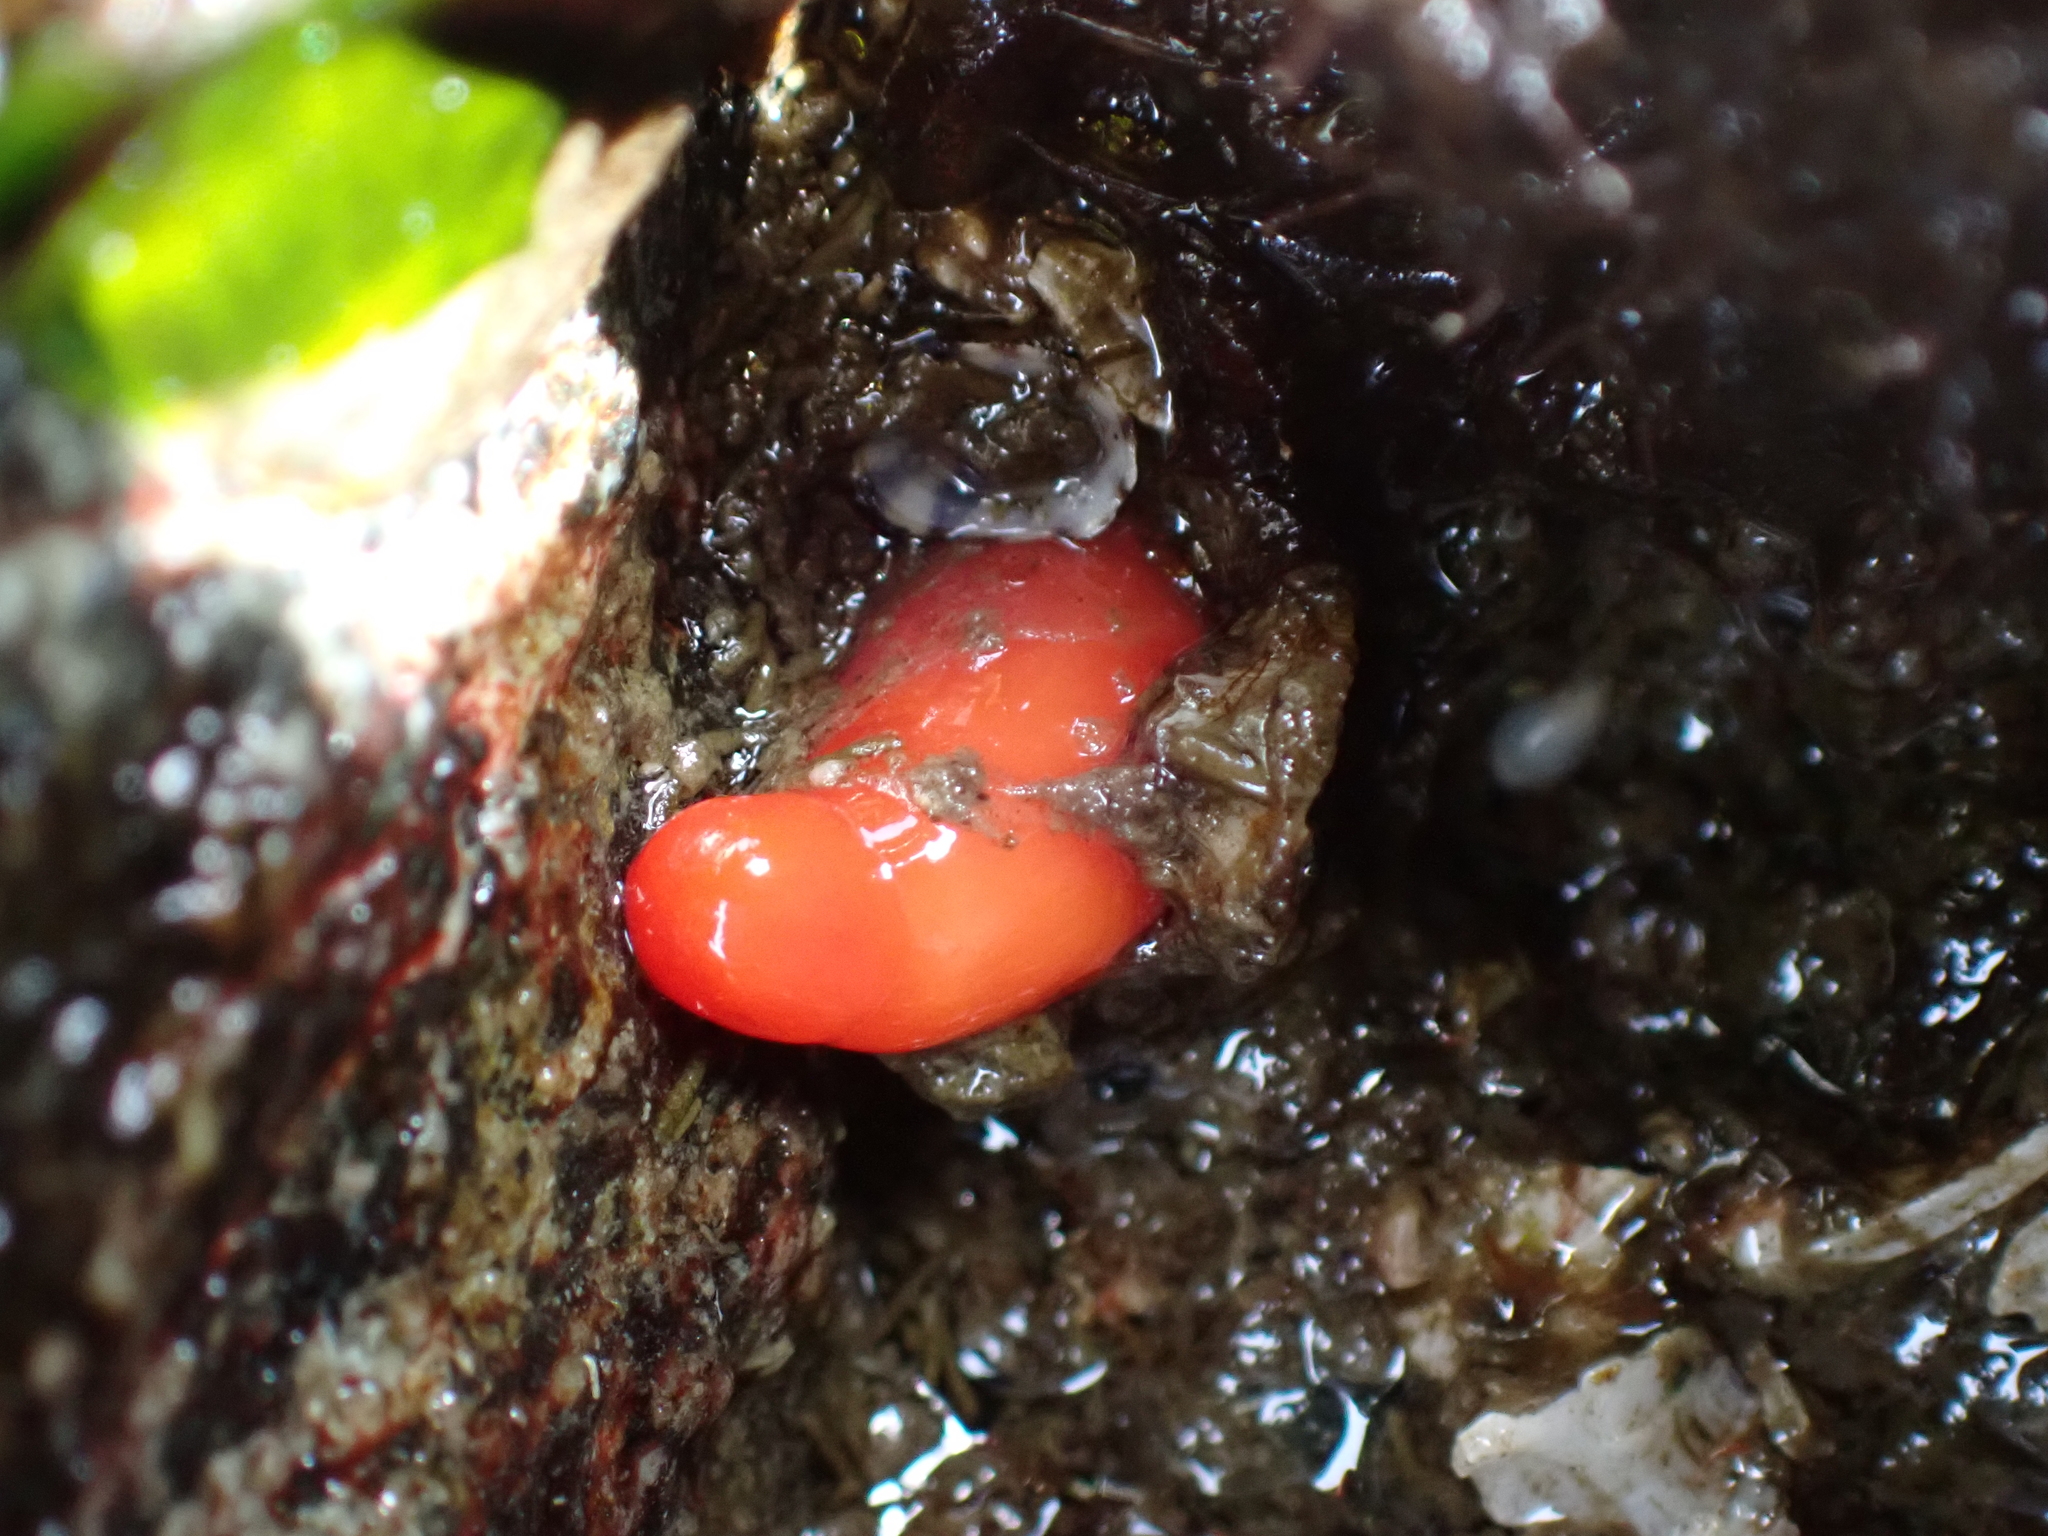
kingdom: Animalia
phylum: Mollusca
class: Gastropoda
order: Nudibranchia
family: Discodorididae
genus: Rostanga
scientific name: Rostanga pulchra
